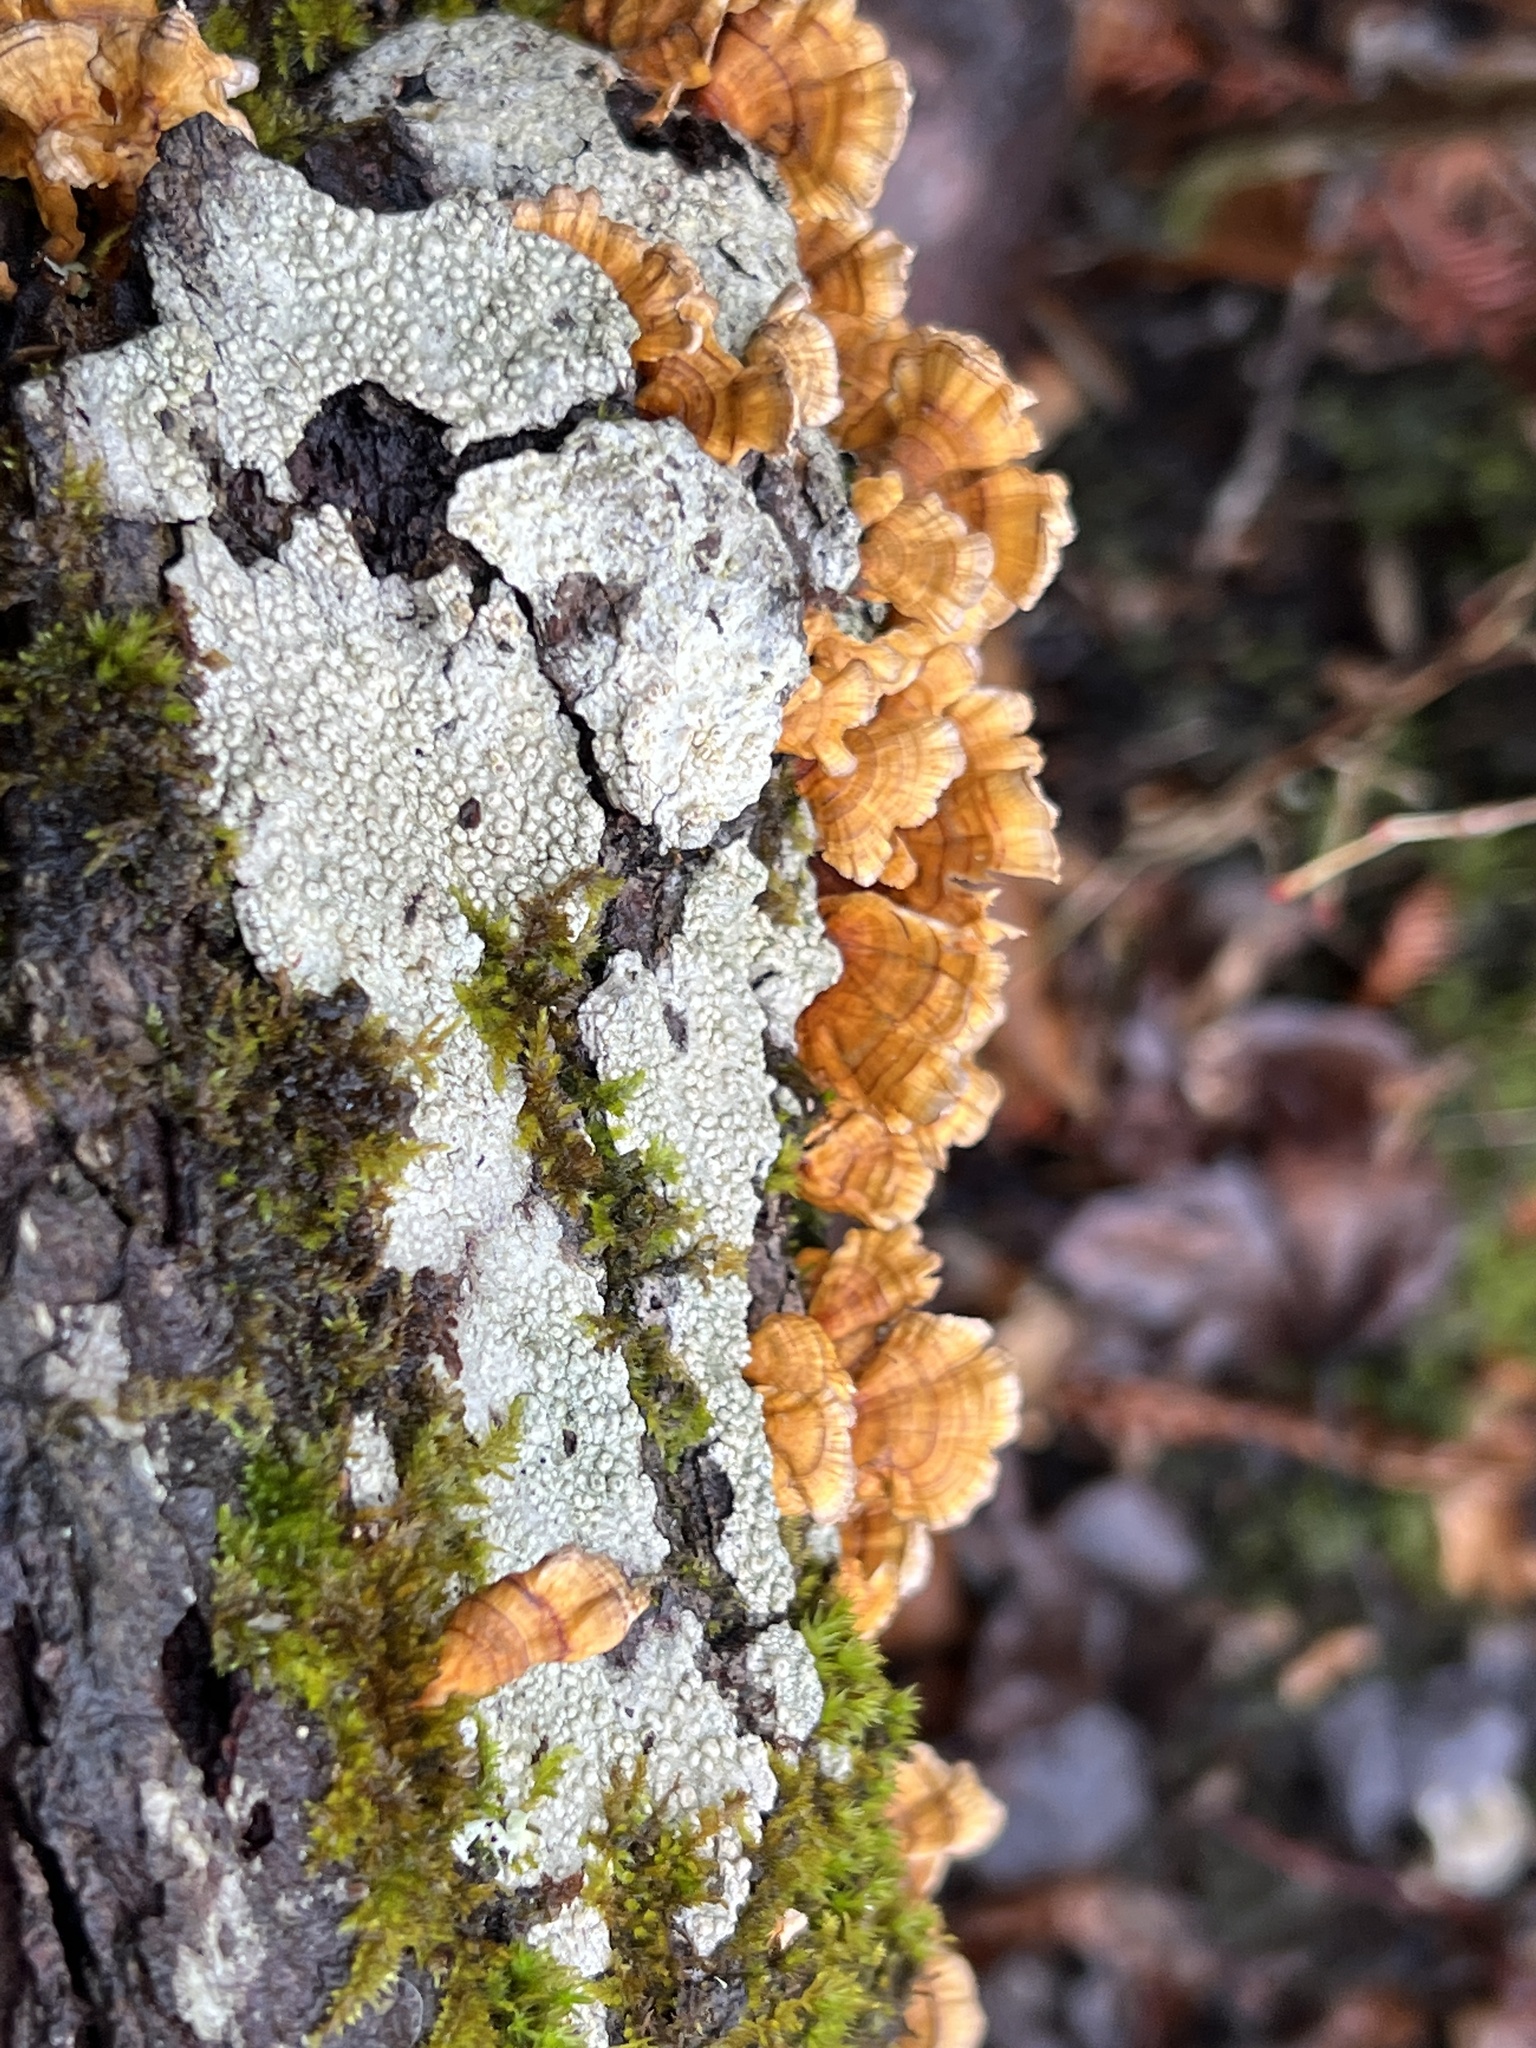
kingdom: Fungi
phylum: Basidiomycota
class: Agaricomycetes
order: Russulales
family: Stereaceae
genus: Stereum
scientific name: Stereum complicatum
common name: Crowded parchment
